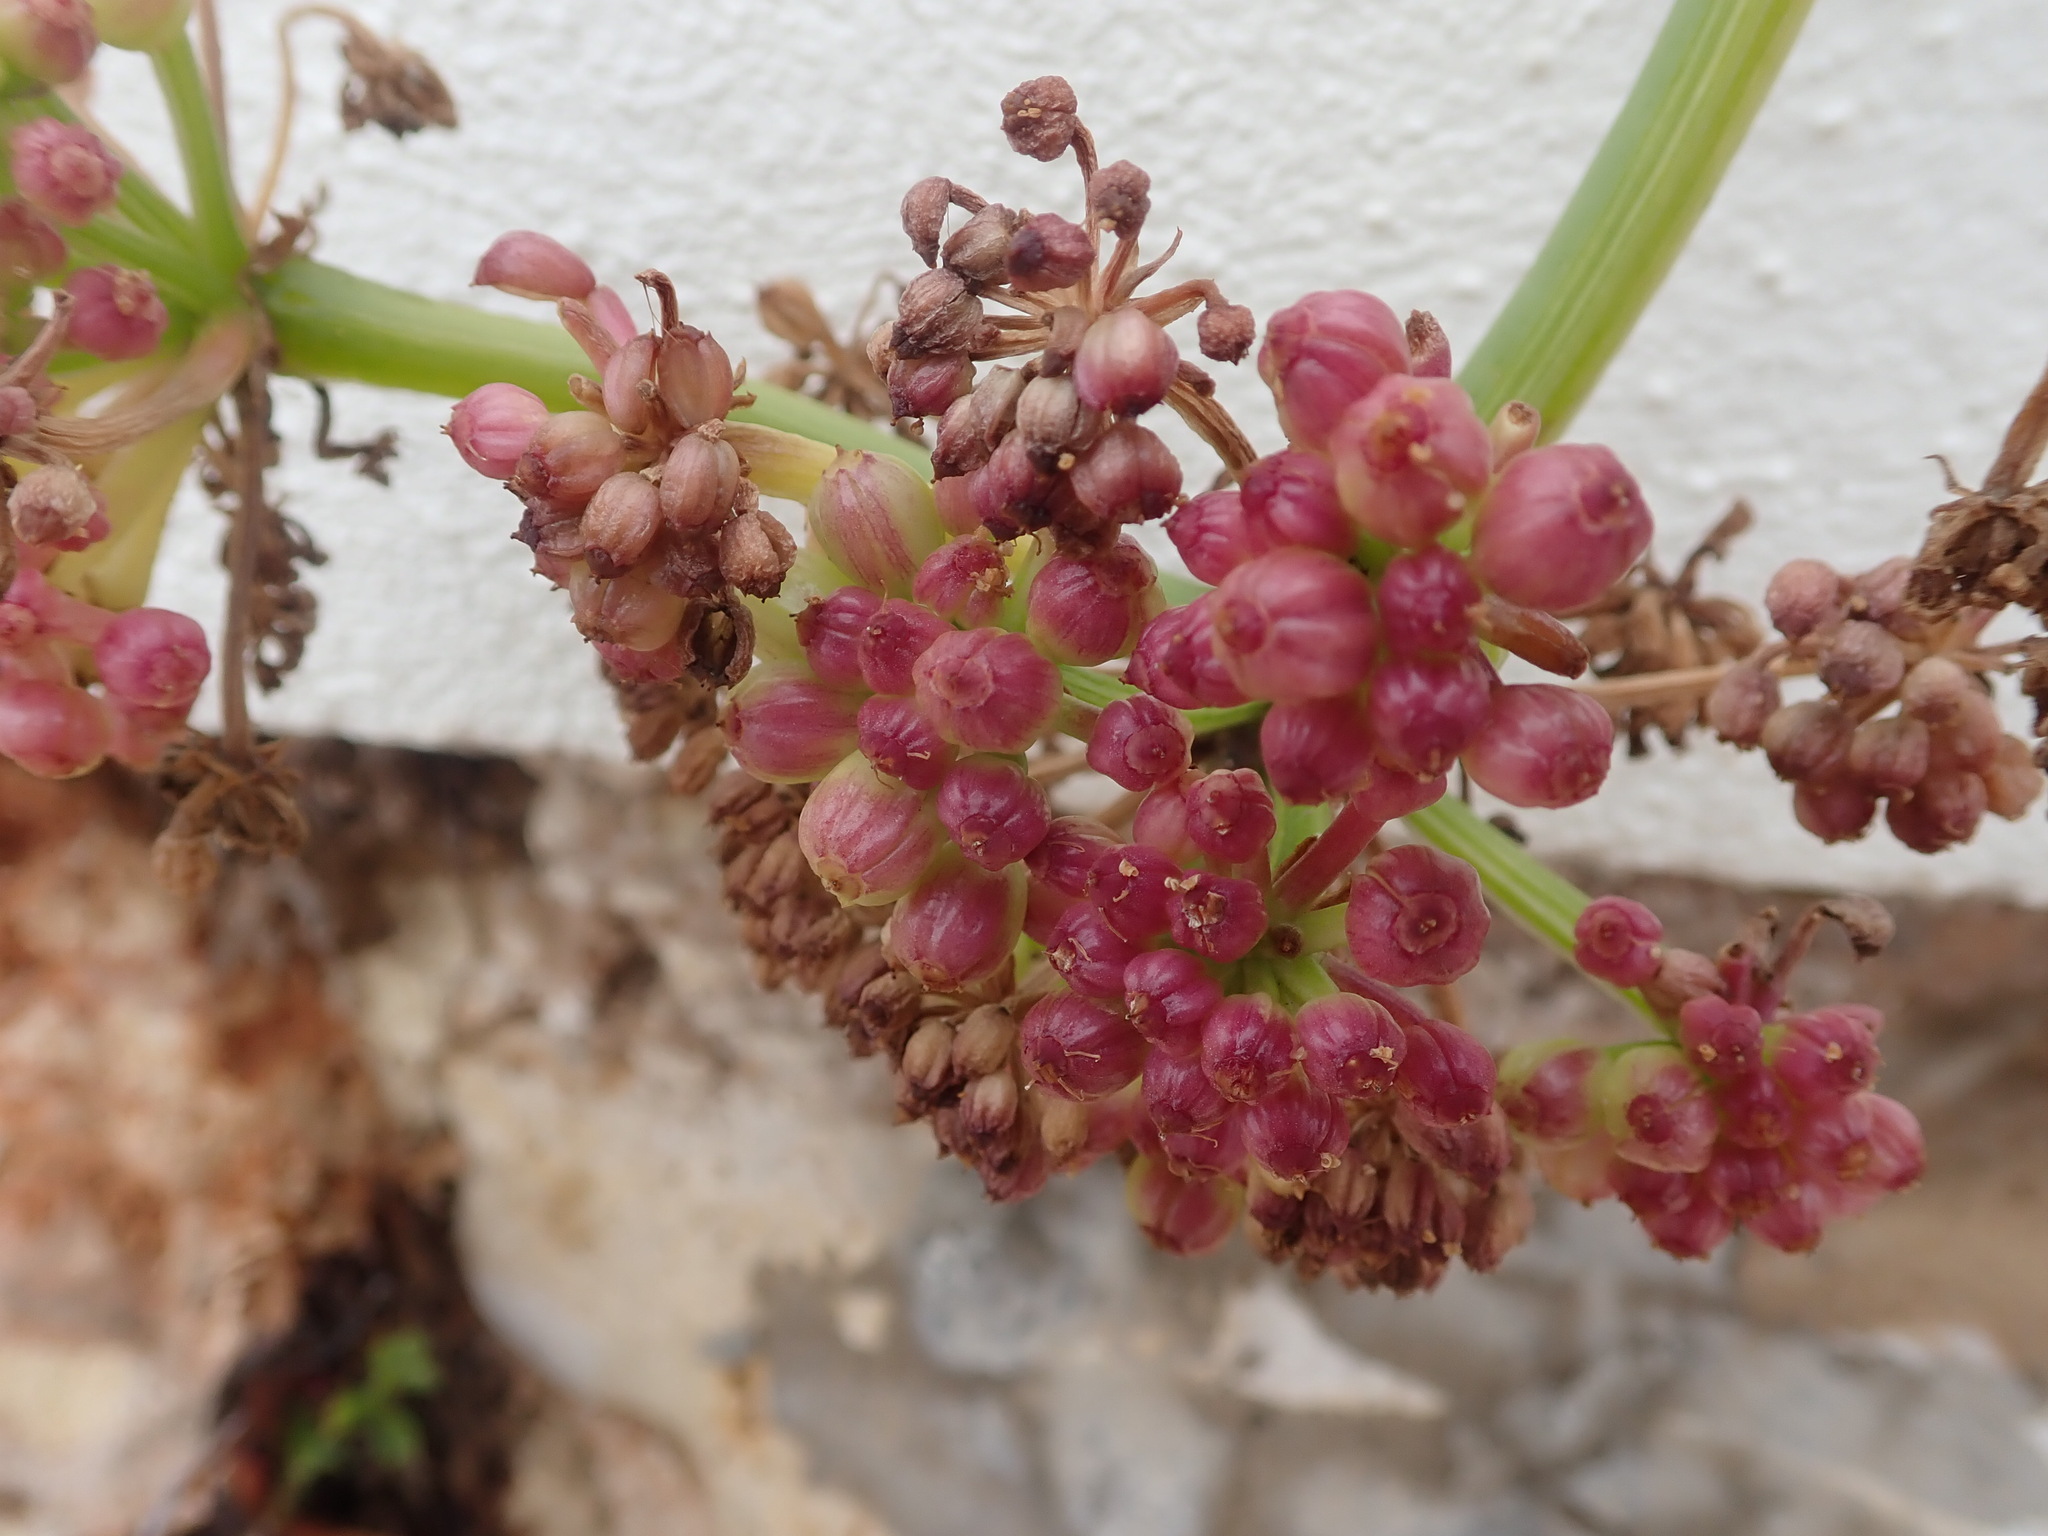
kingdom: Plantae
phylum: Tracheophyta
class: Magnoliopsida
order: Apiales
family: Apiaceae
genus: Crithmum
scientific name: Crithmum maritimum
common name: Rock samphire
